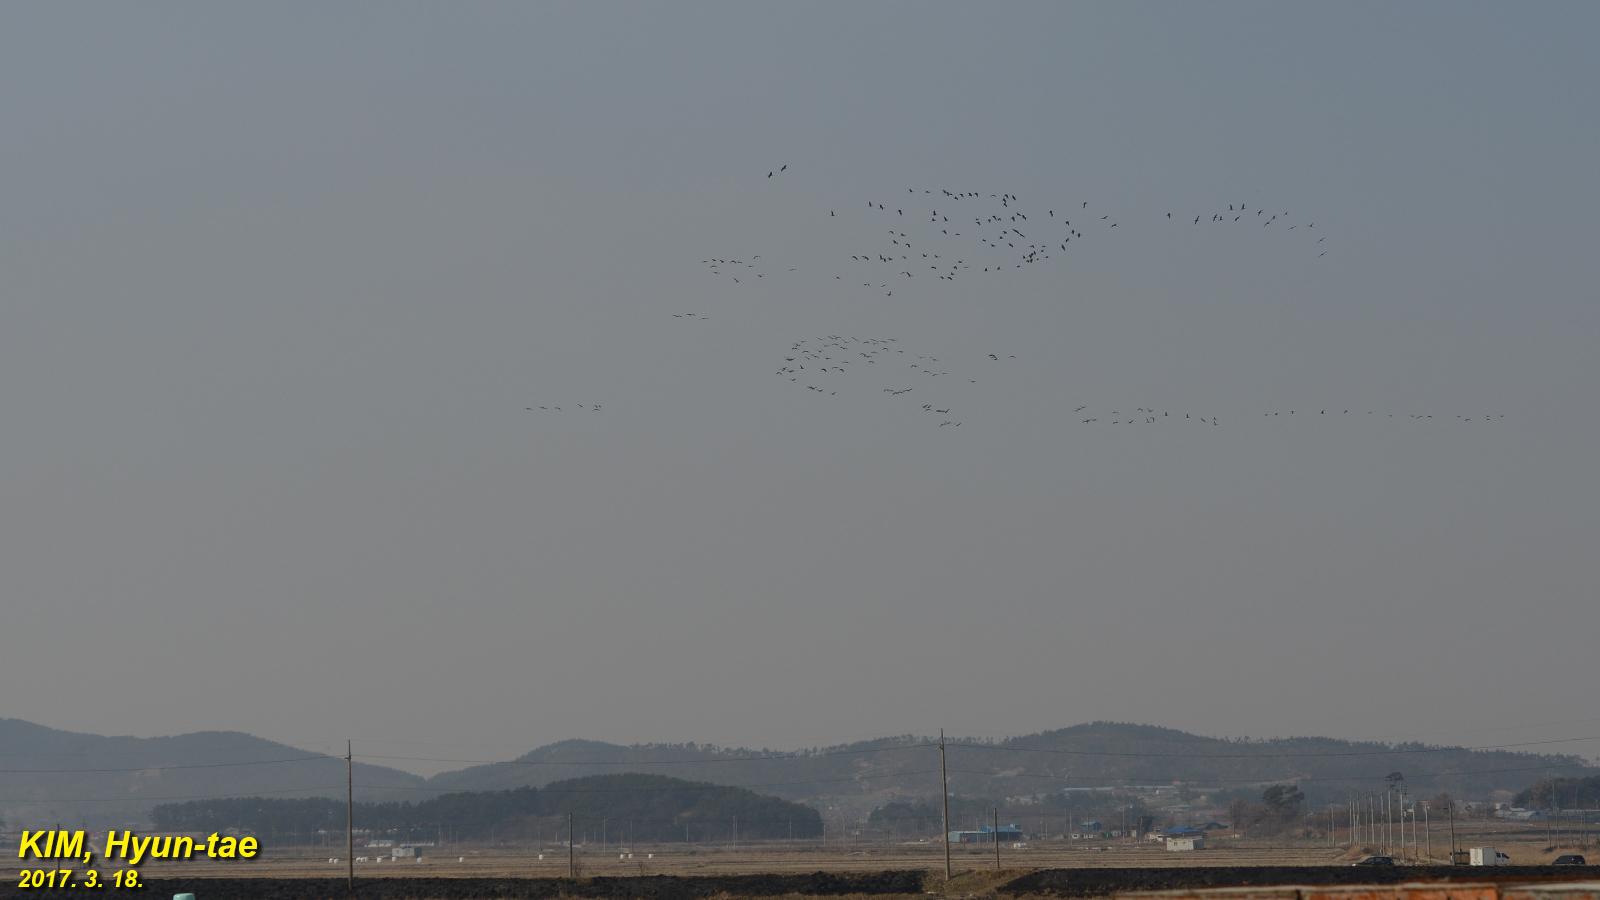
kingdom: Animalia
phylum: Chordata
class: Aves
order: Gruiformes
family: Gruidae
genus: Grus
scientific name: Grus monacha
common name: Hooded crane
